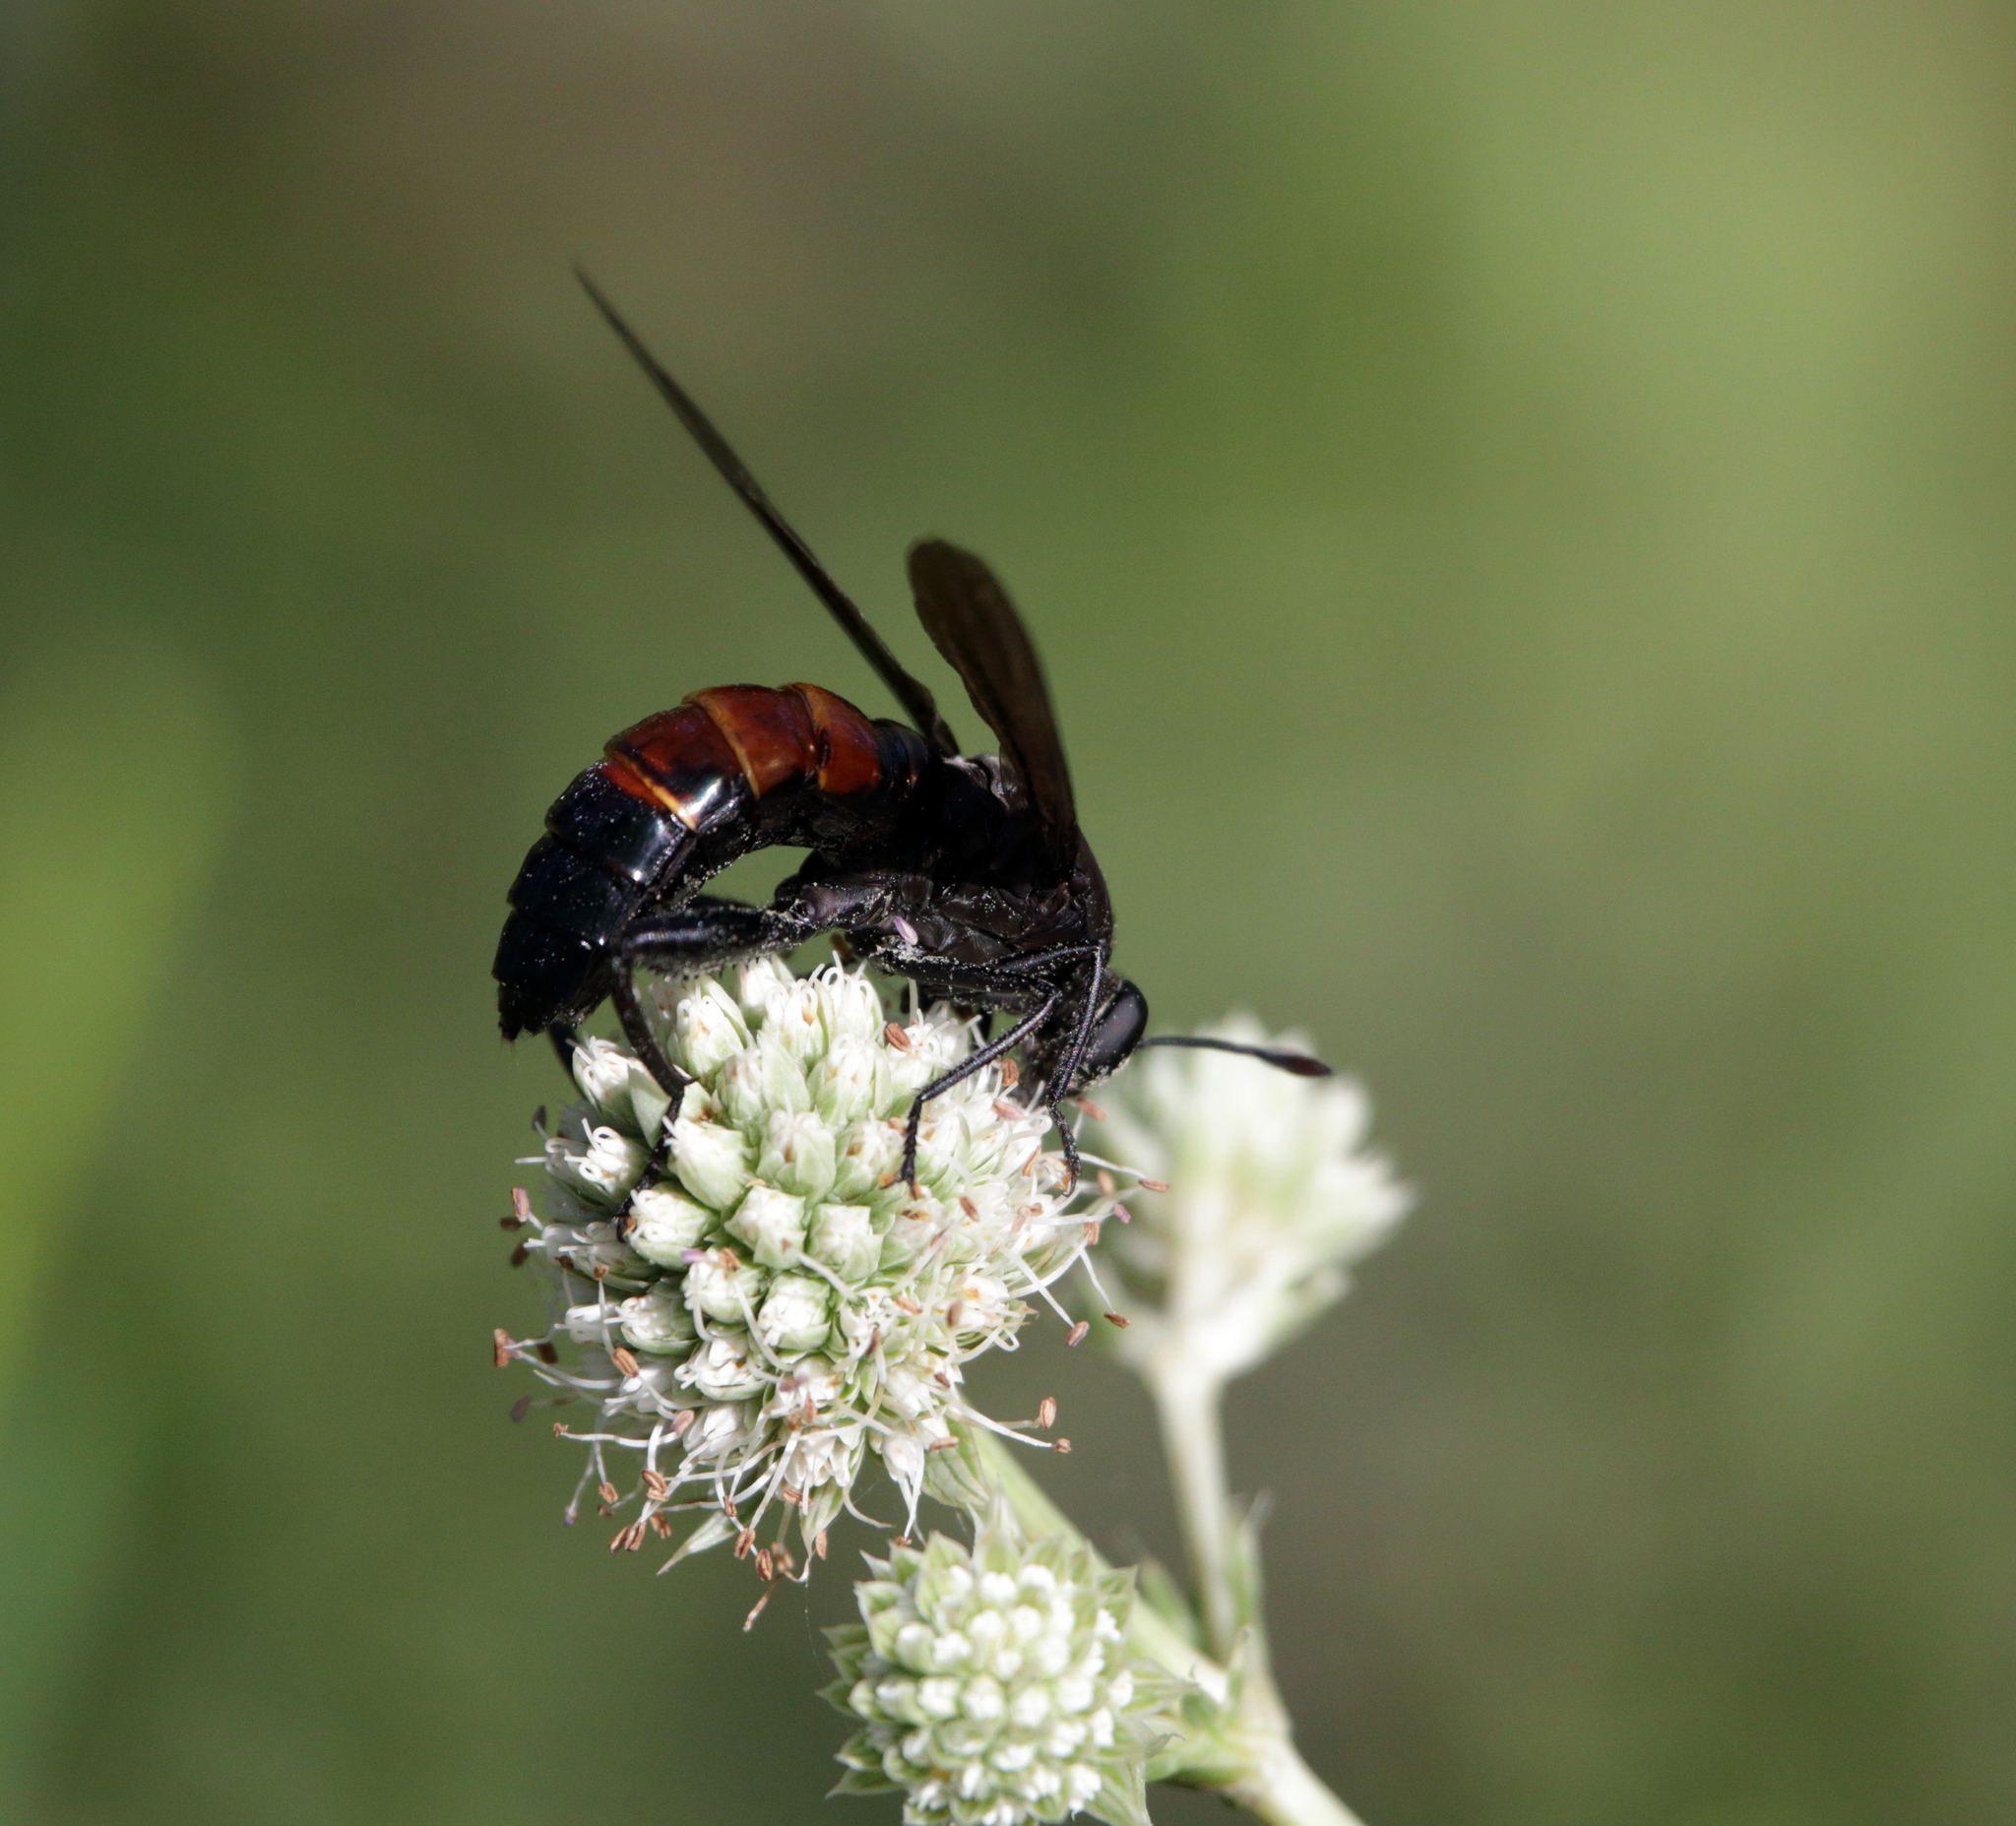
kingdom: Animalia
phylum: Arthropoda
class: Insecta
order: Diptera
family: Mydidae
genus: Mydas
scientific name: Mydas fulvifrons
